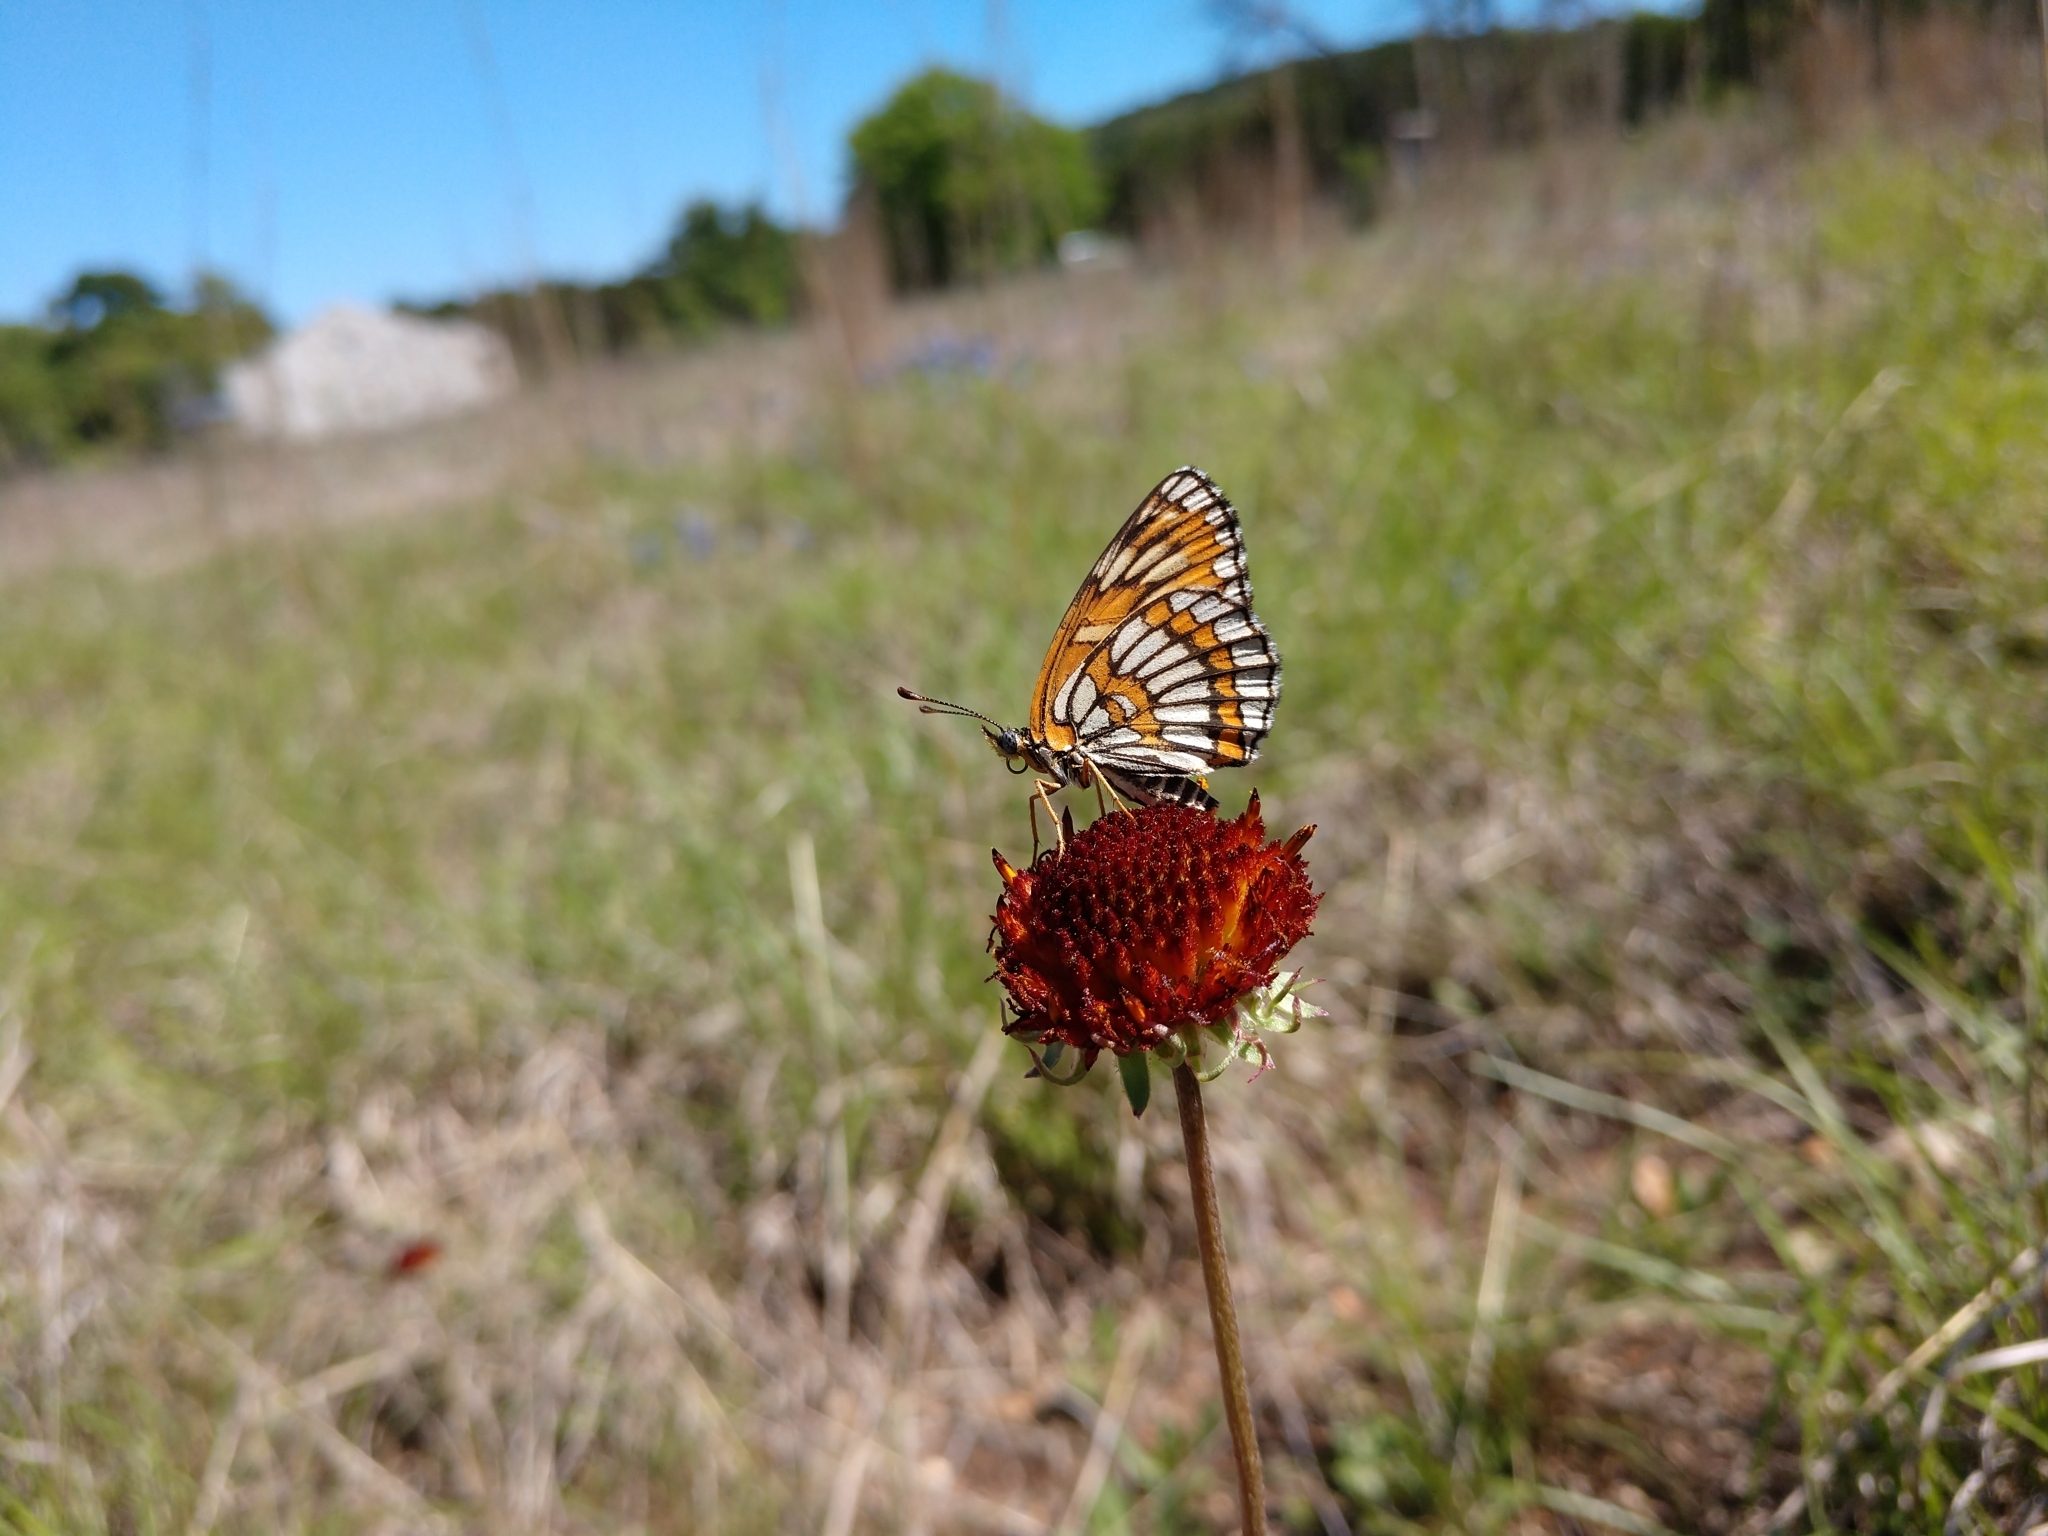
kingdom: Animalia
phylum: Arthropoda
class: Insecta
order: Lepidoptera
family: Nymphalidae
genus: Thessalia
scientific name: Thessalia theona
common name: Nymphalid moth
